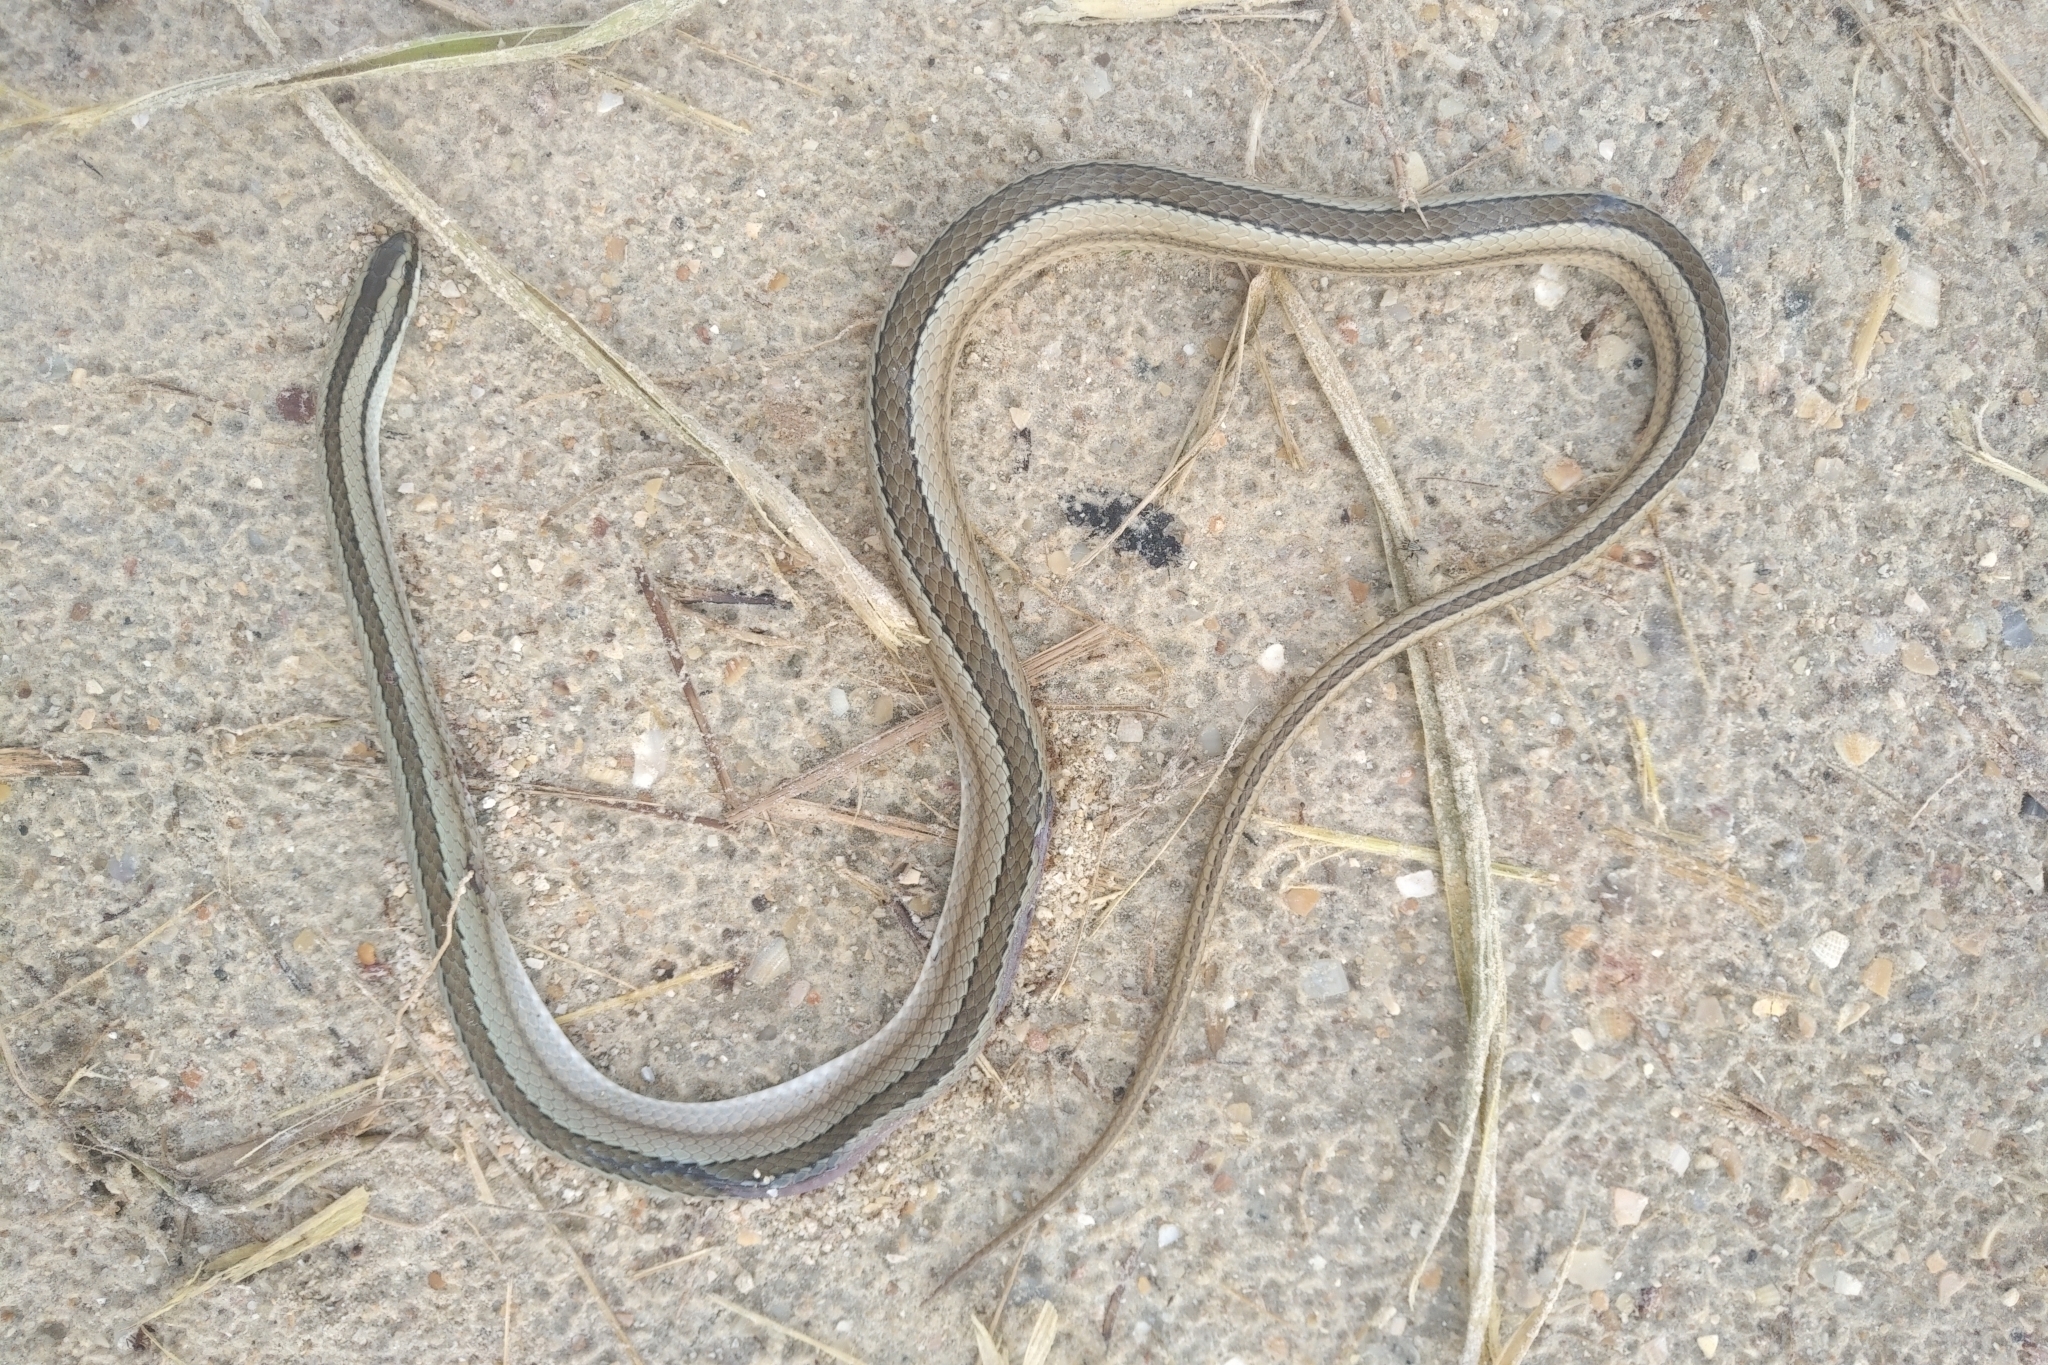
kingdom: Animalia
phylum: Chordata
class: Squamata
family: Colubridae
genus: Lygophis
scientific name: Lygophis lineatus
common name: Lined ground snake
